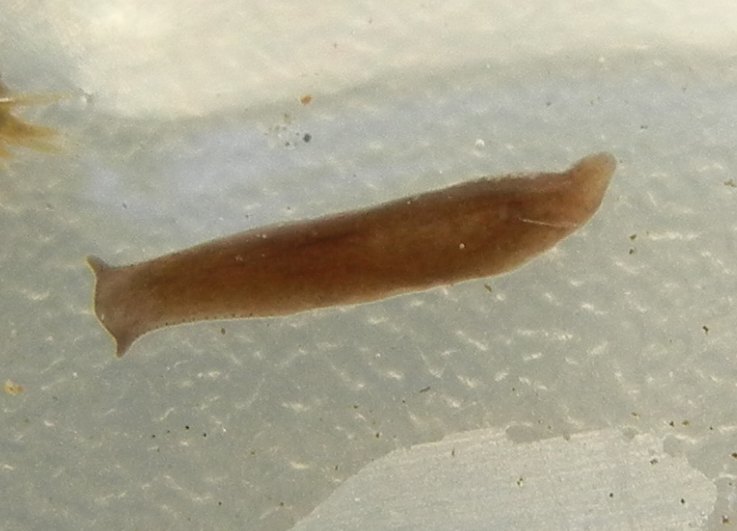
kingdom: Animalia
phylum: Platyhelminthes
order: Tricladida
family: Planariidae
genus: Polycelis
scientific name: Polycelis felina
